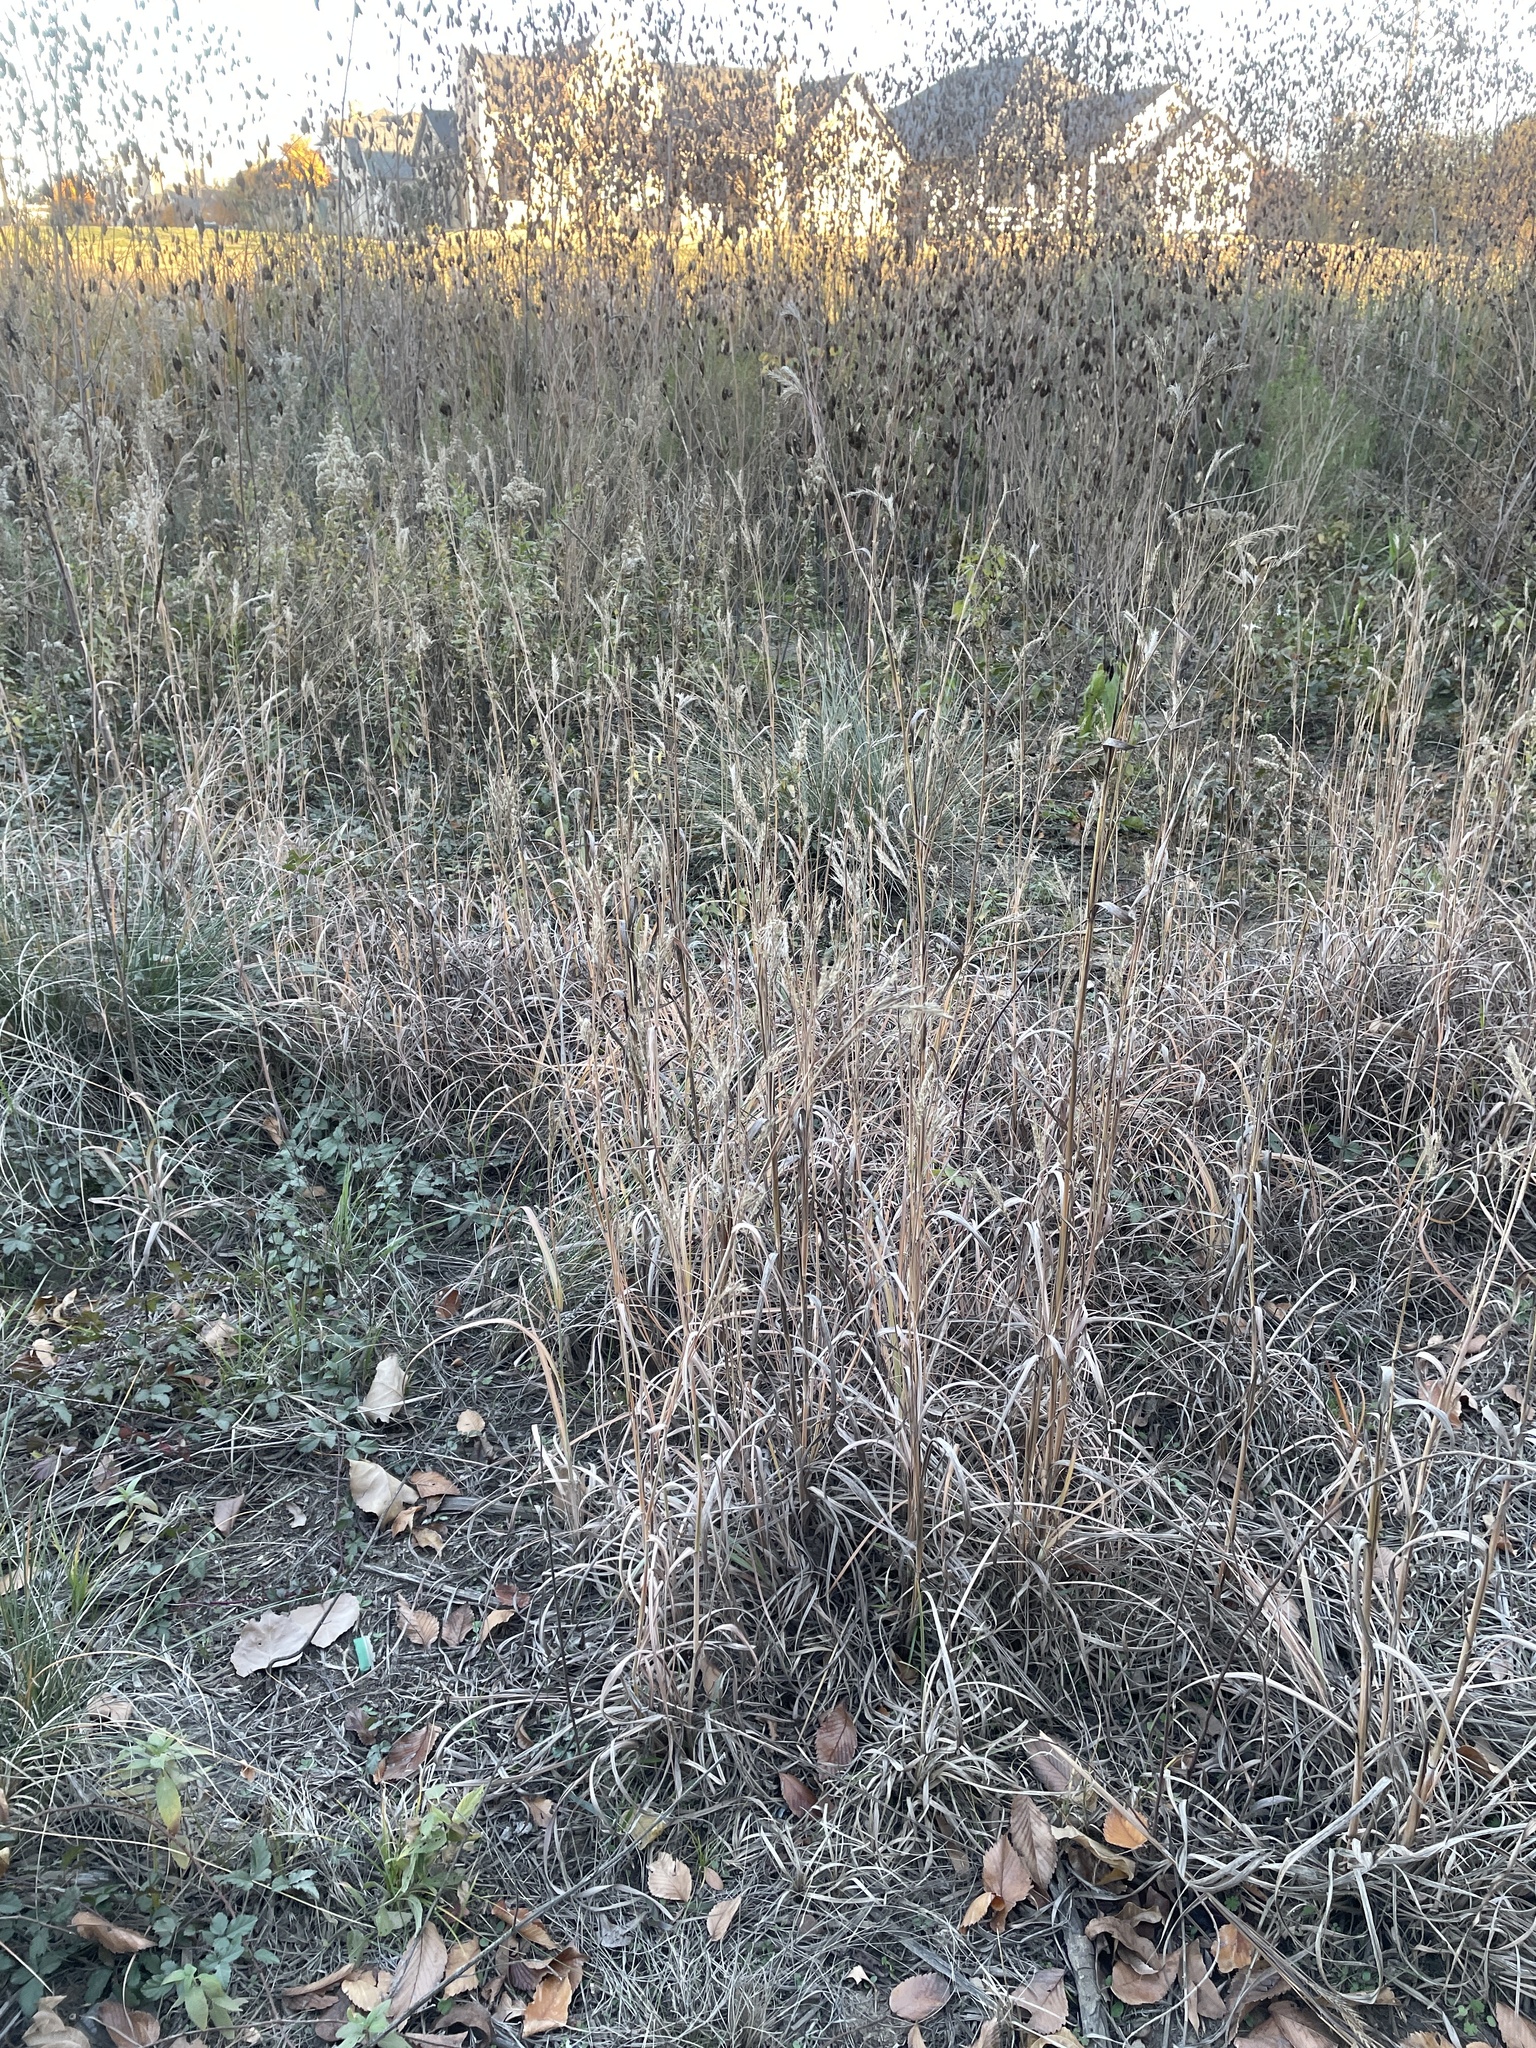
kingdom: Plantae
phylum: Tracheophyta
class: Liliopsida
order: Poales
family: Poaceae
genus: Andropogon
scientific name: Andropogon gerardi
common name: Big bluestem
